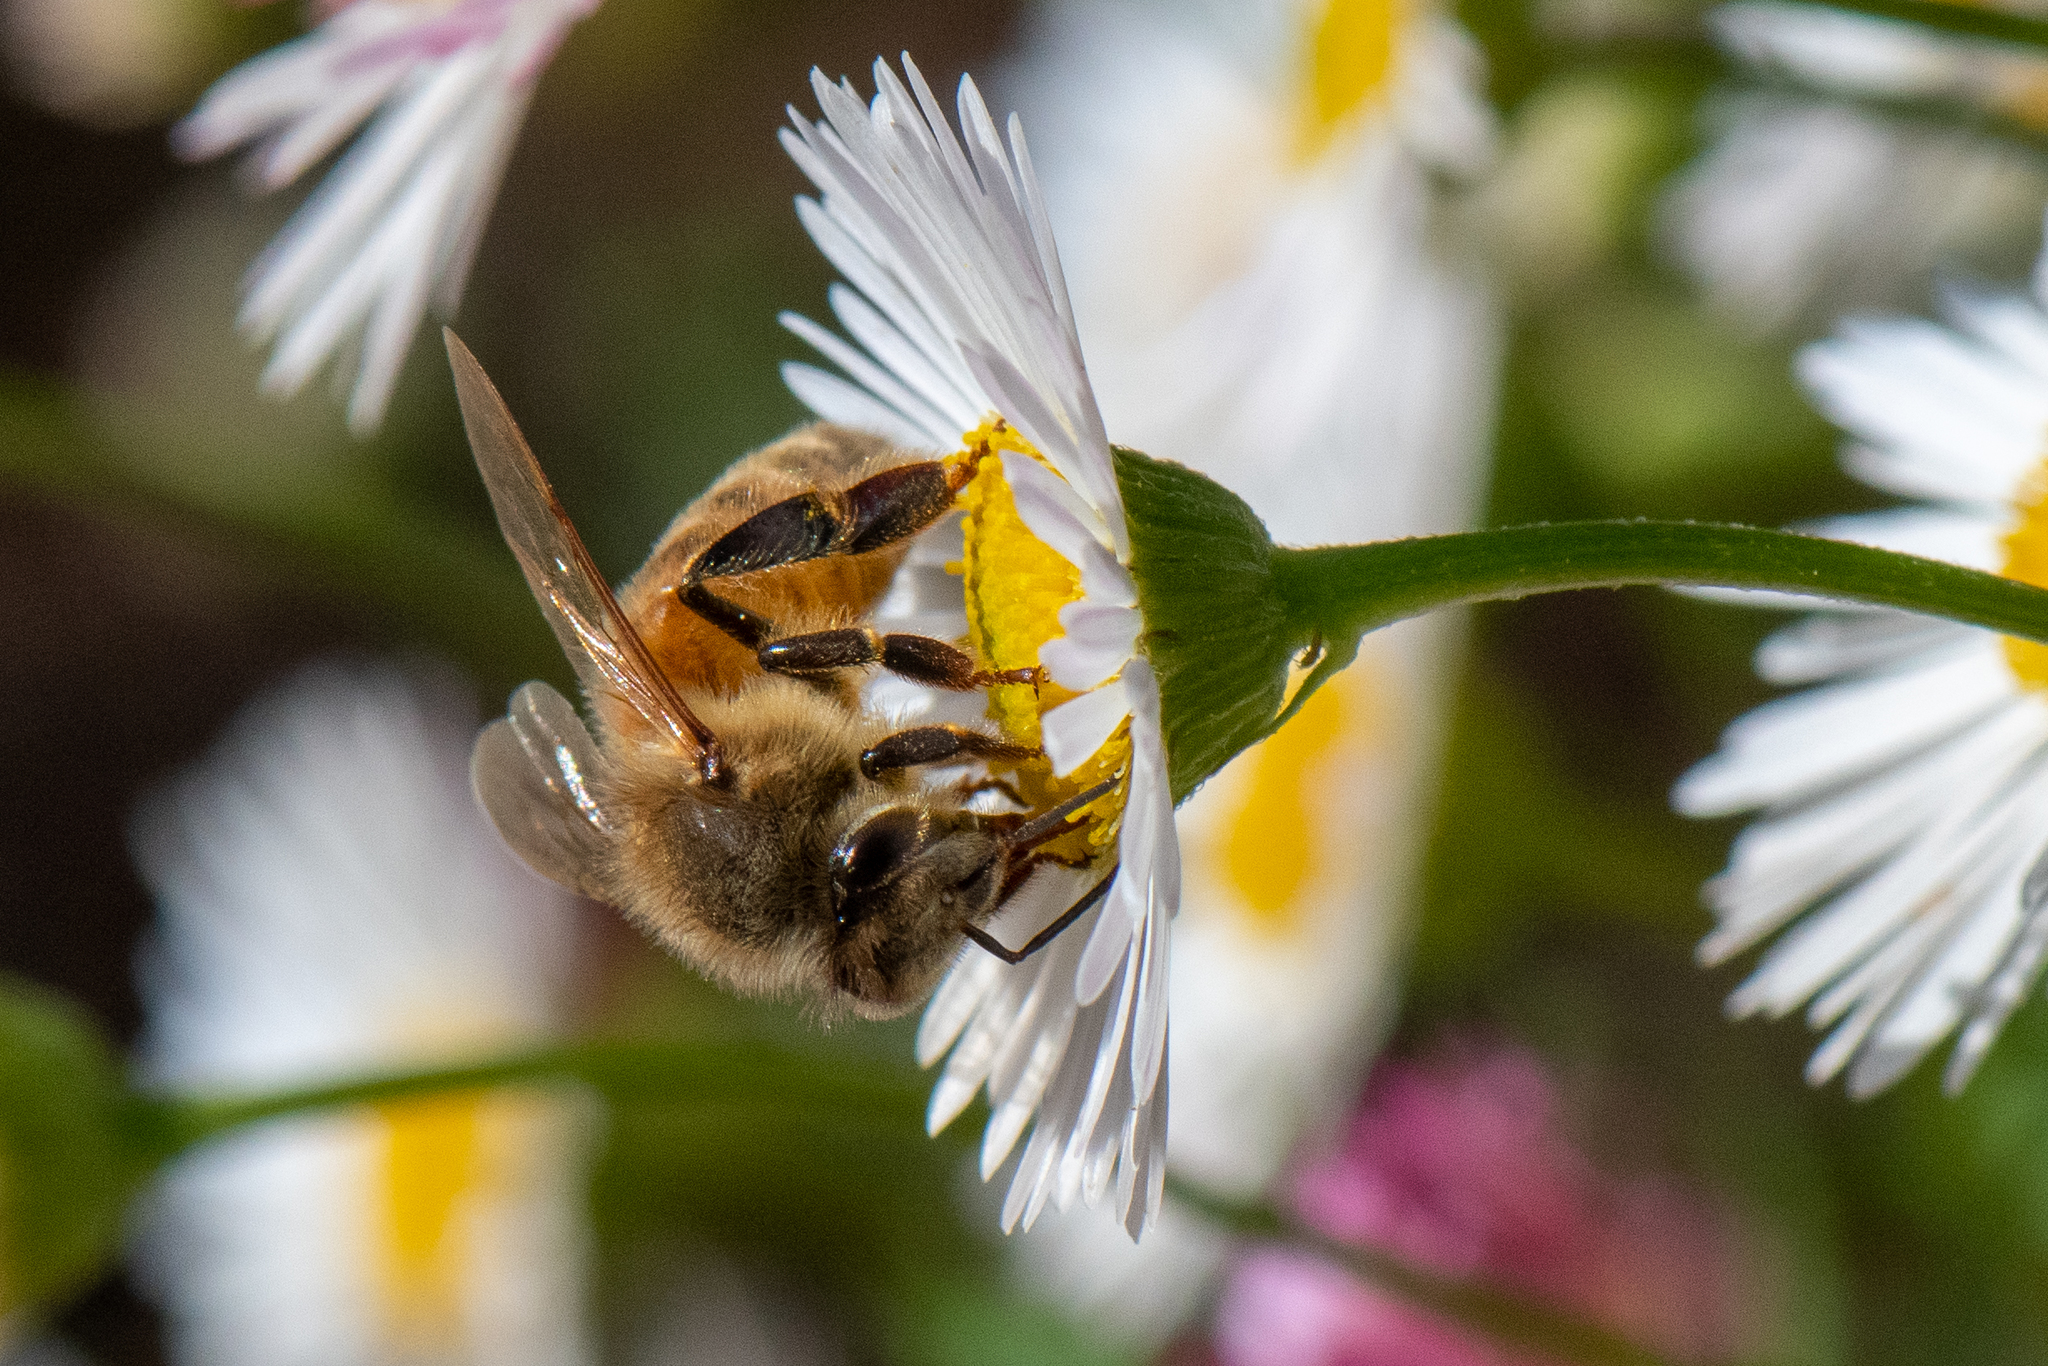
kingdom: Animalia
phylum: Arthropoda
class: Insecta
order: Hymenoptera
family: Apidae
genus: Apis
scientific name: Apis mellifera
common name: Honey bee
